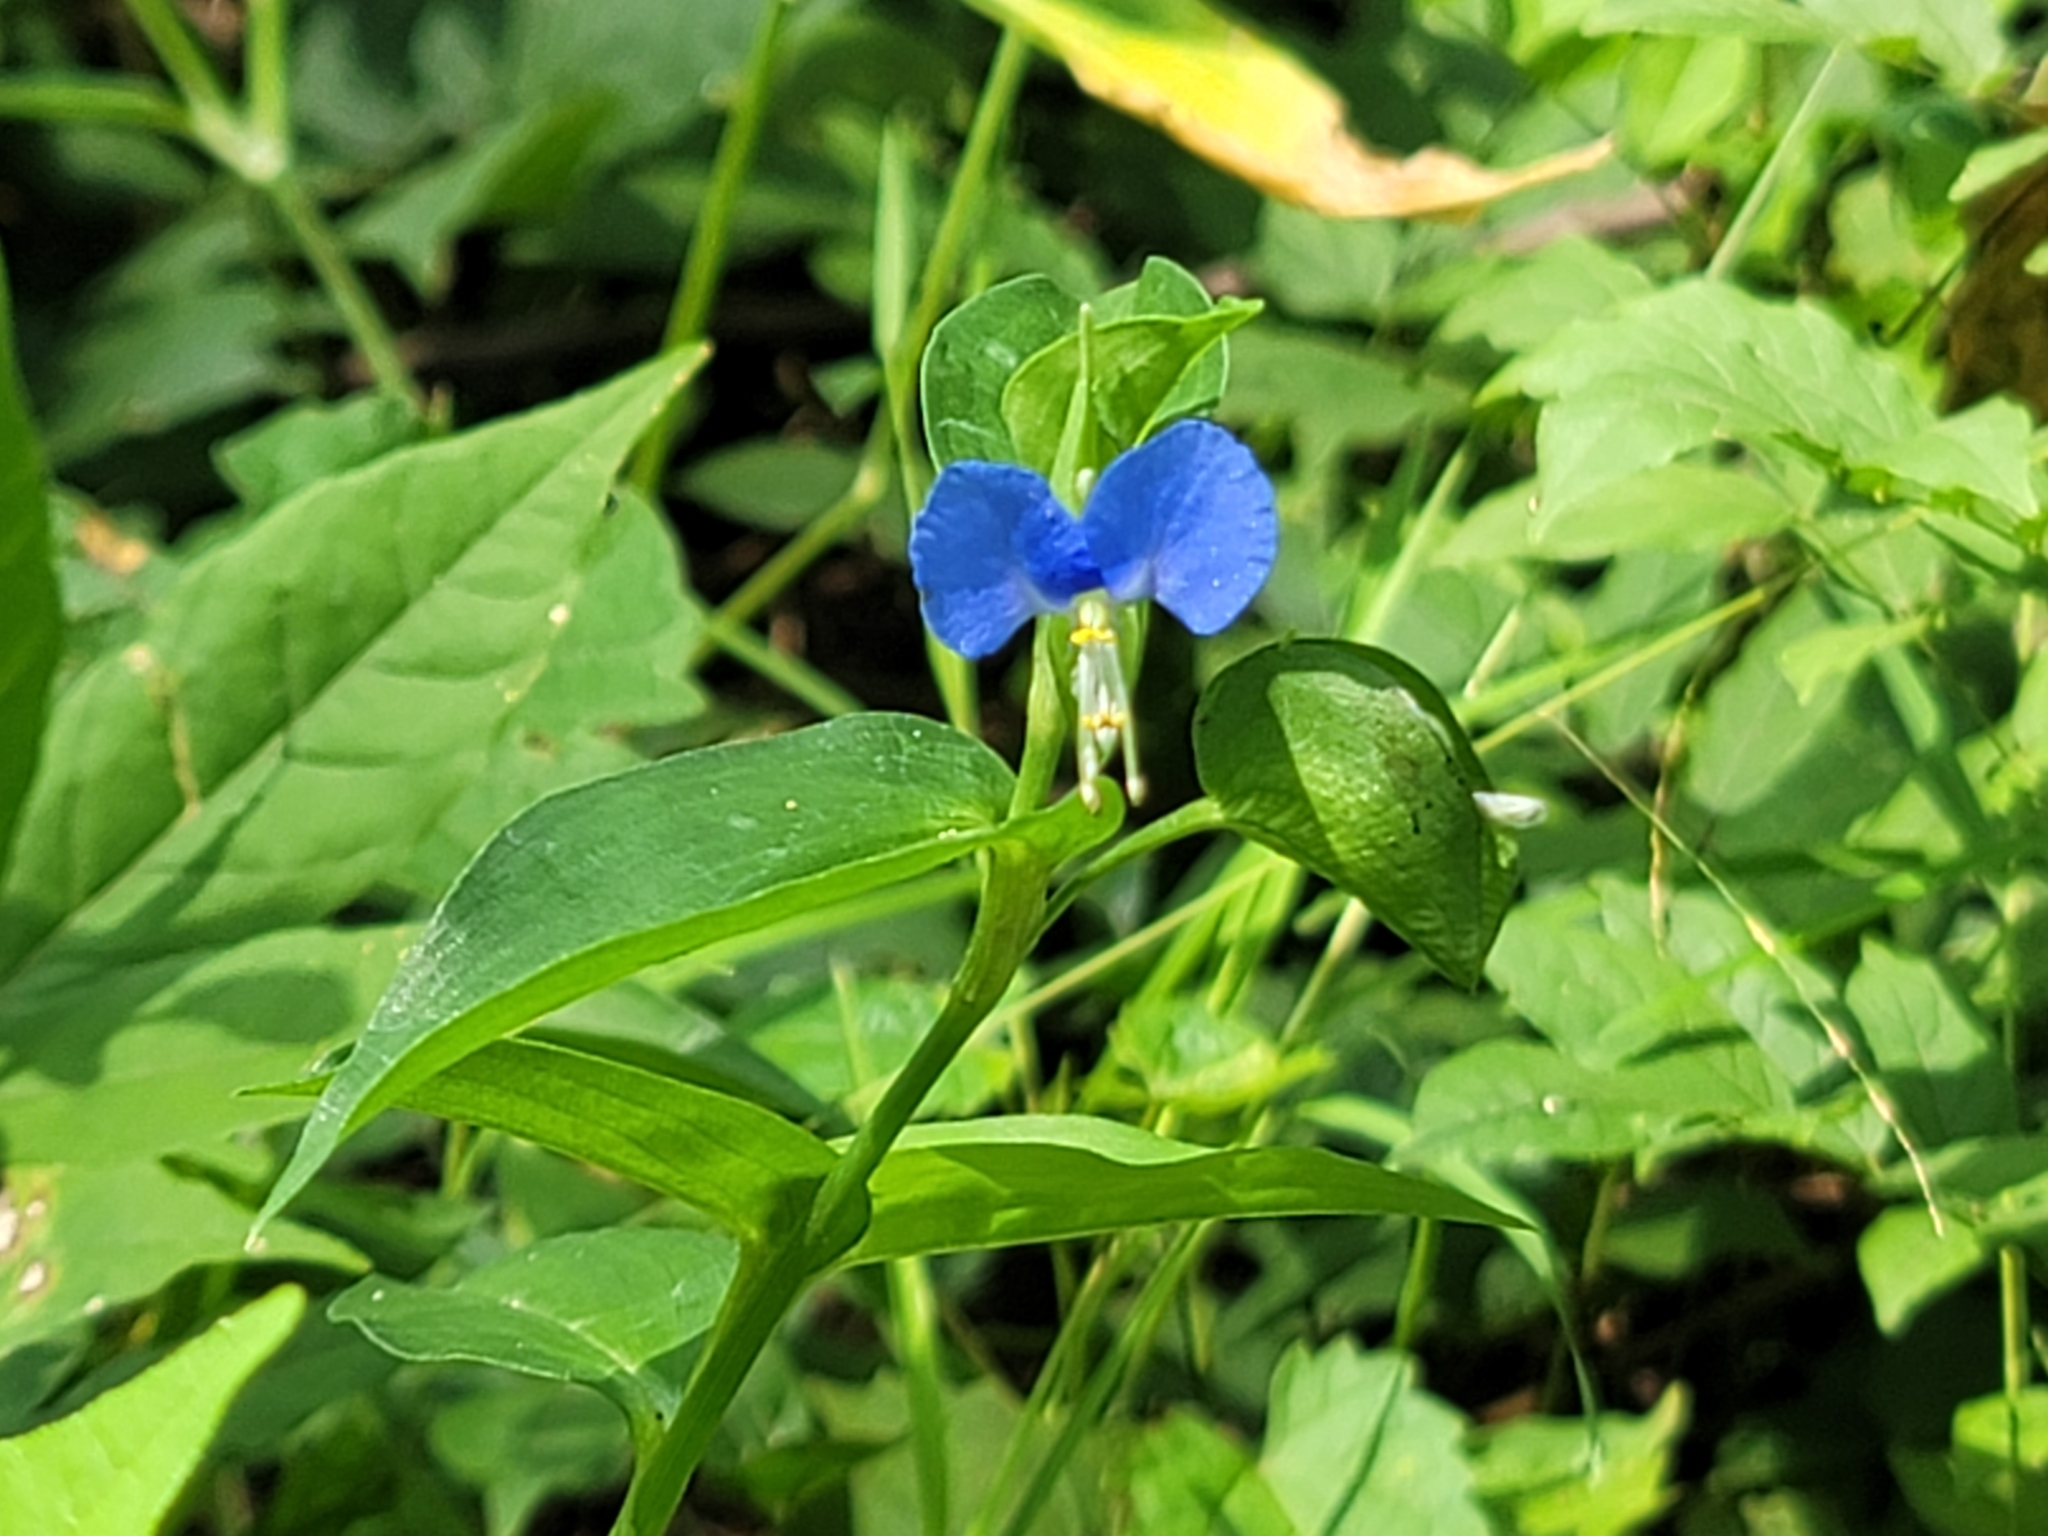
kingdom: Plantae
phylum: Tracheophyta
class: Liliopsida
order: Commelinales
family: Commelinaceae
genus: Commelina
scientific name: Commelina communis
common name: Asiatic dayflower
